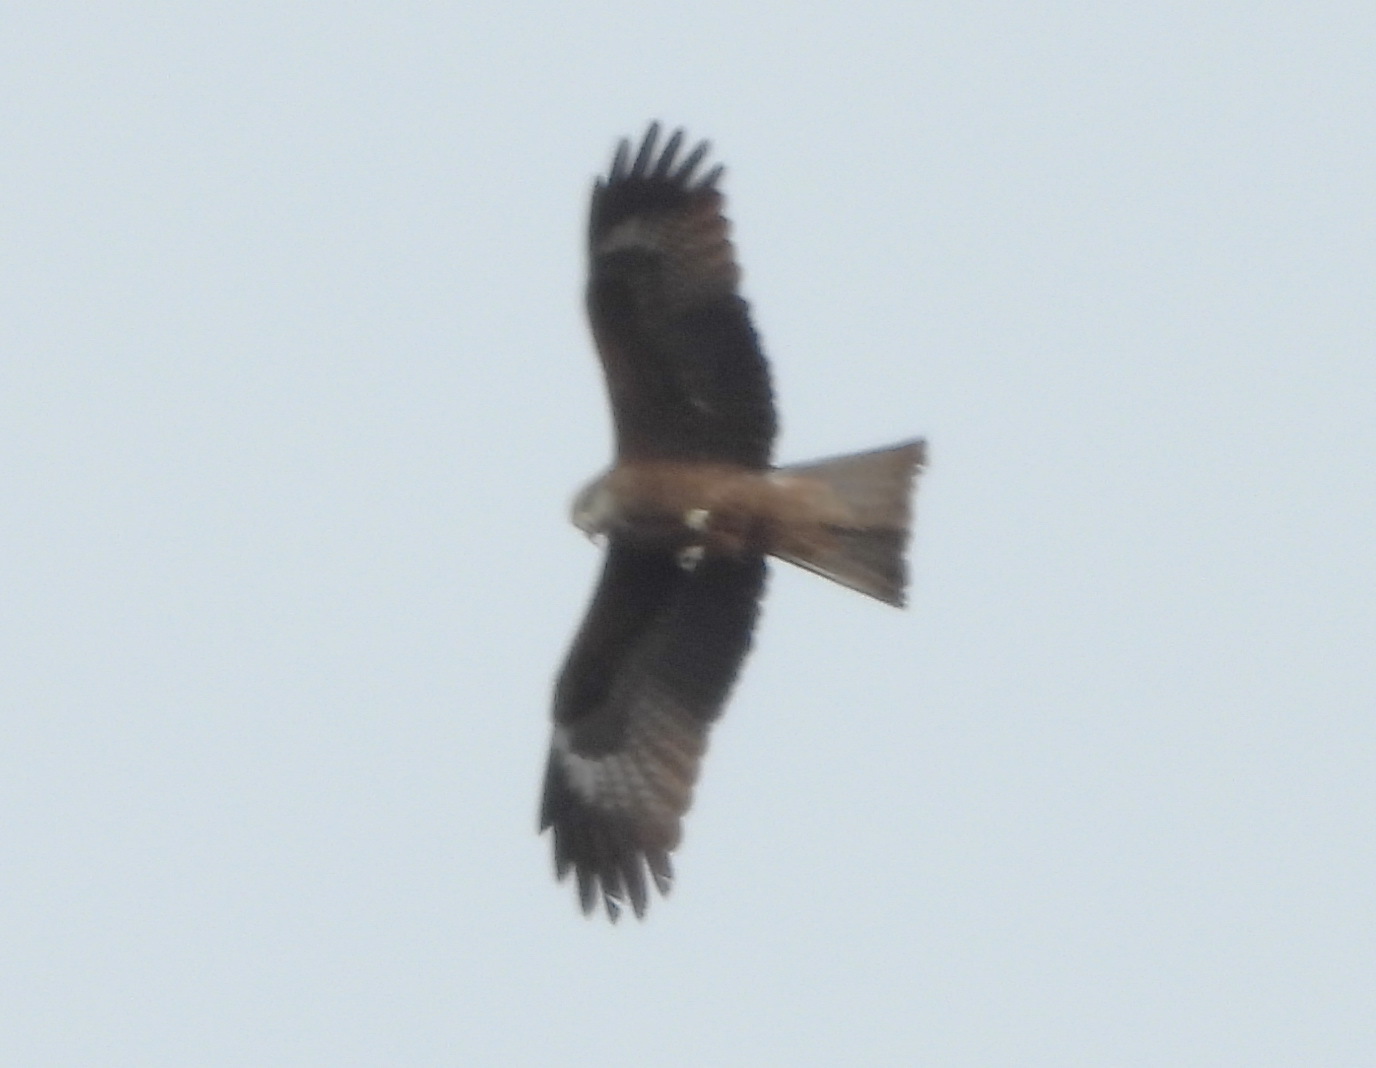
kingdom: Animalia
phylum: Chordata
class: Aves
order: Accipitriformes
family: Accipitridae
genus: Milvus
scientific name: Milvus migrans
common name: Black kite
